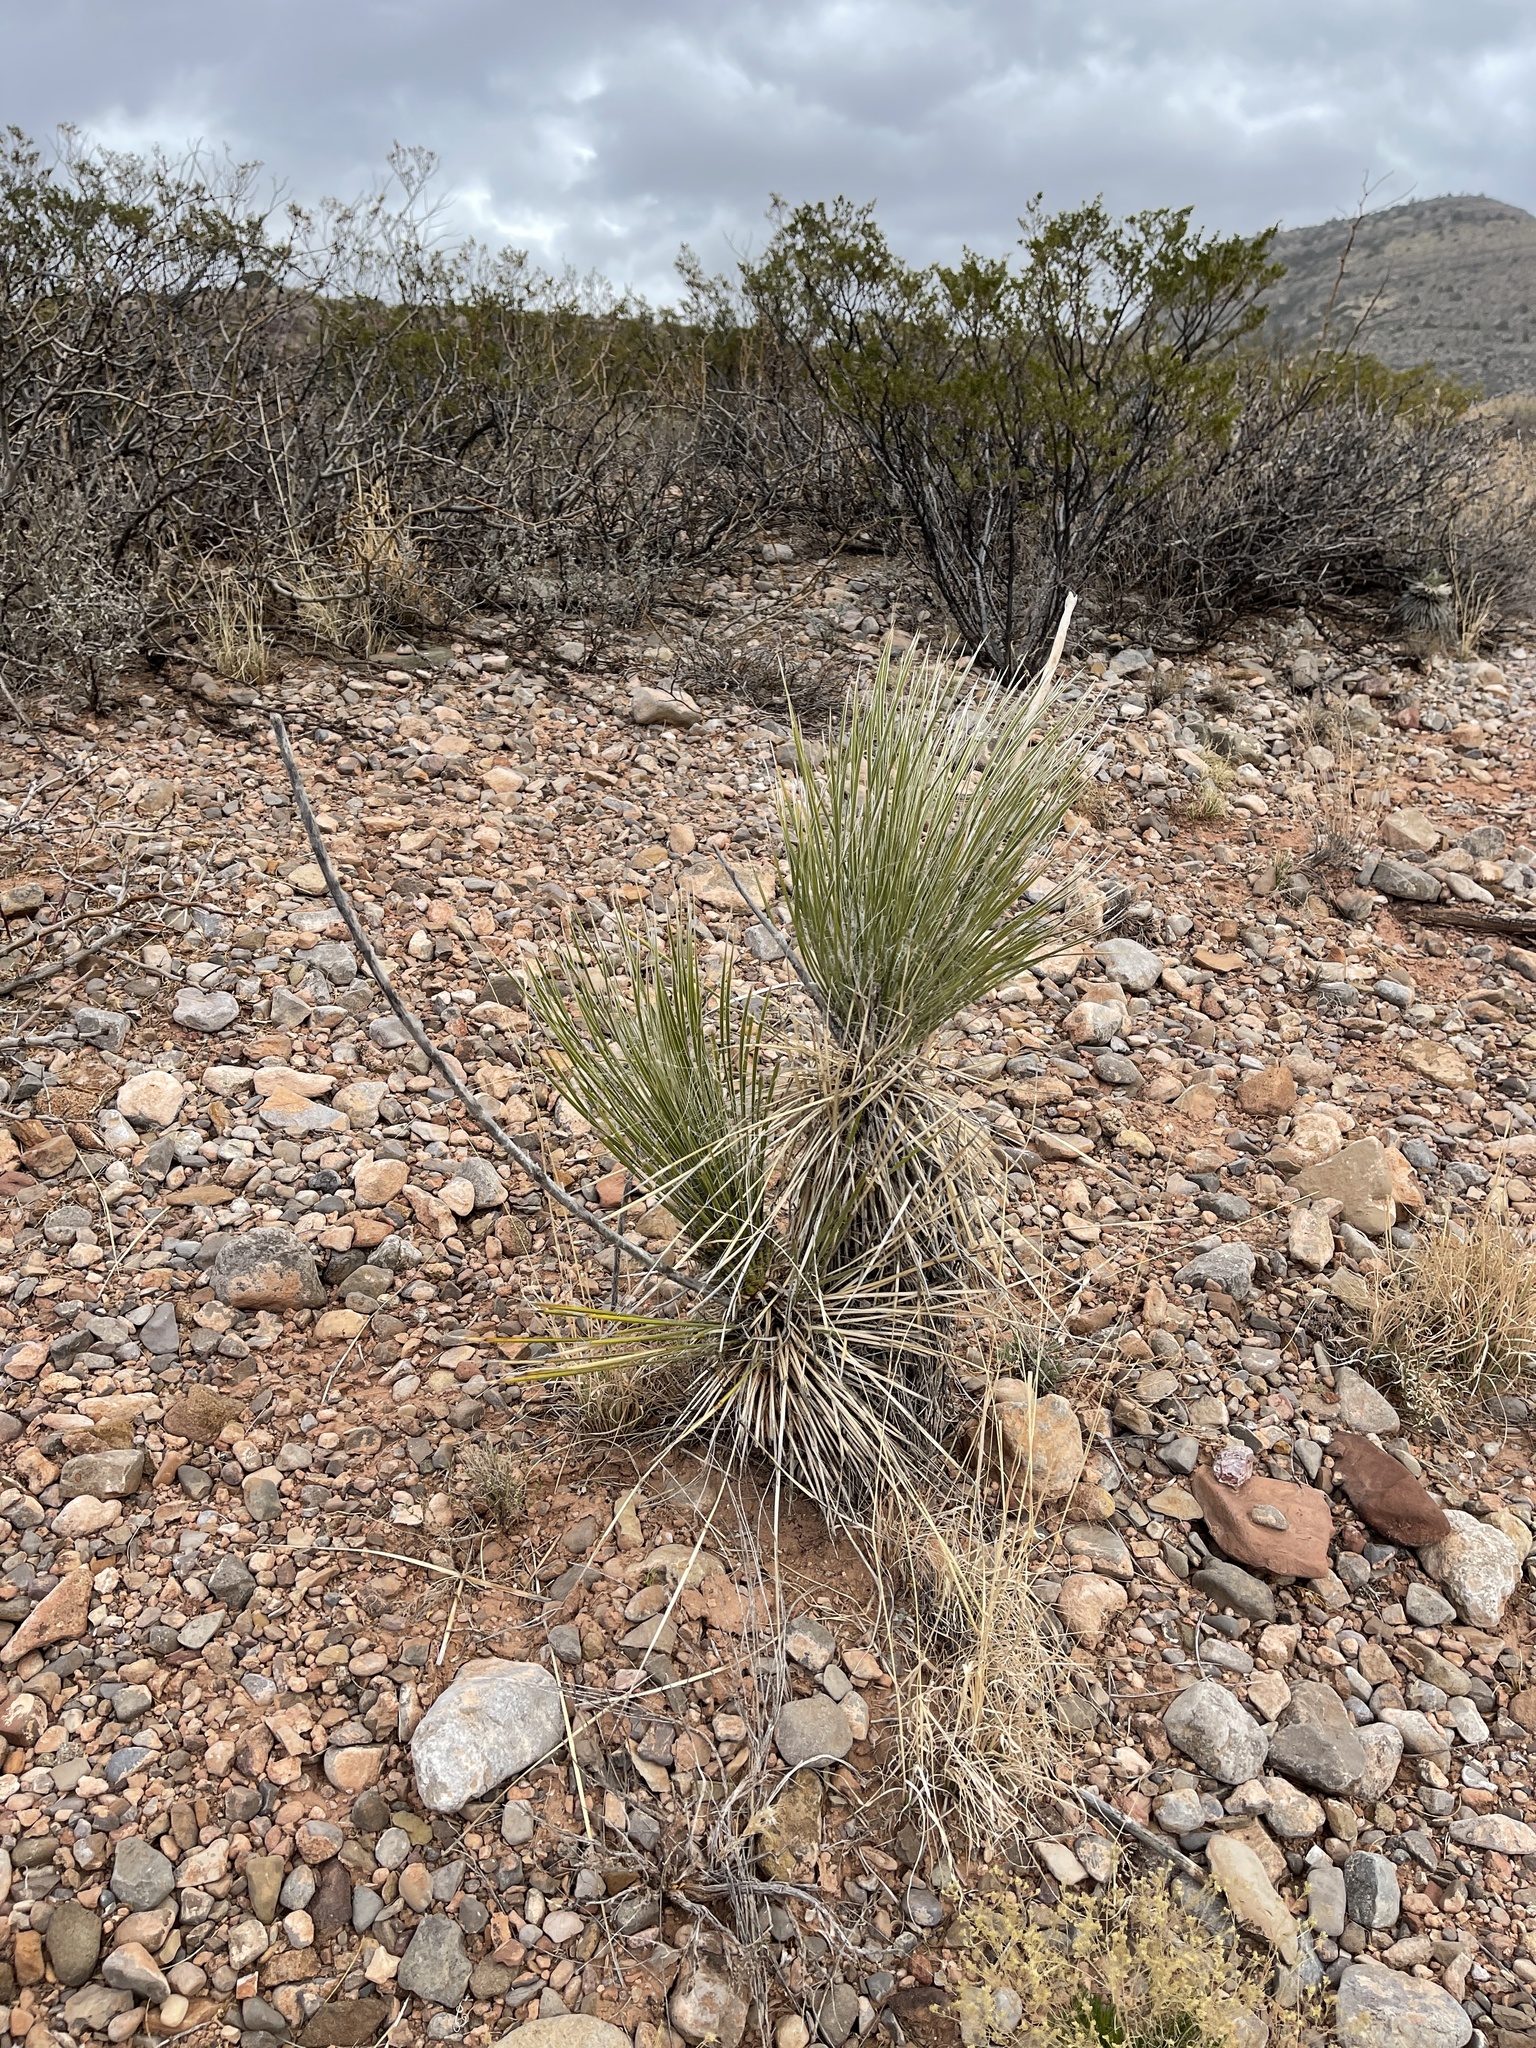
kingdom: Plantae
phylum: Tracheophyta
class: Liliopsida
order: Asparagales
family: Asparagaceae
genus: Yucca
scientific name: Yucca elata
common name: Palmella
